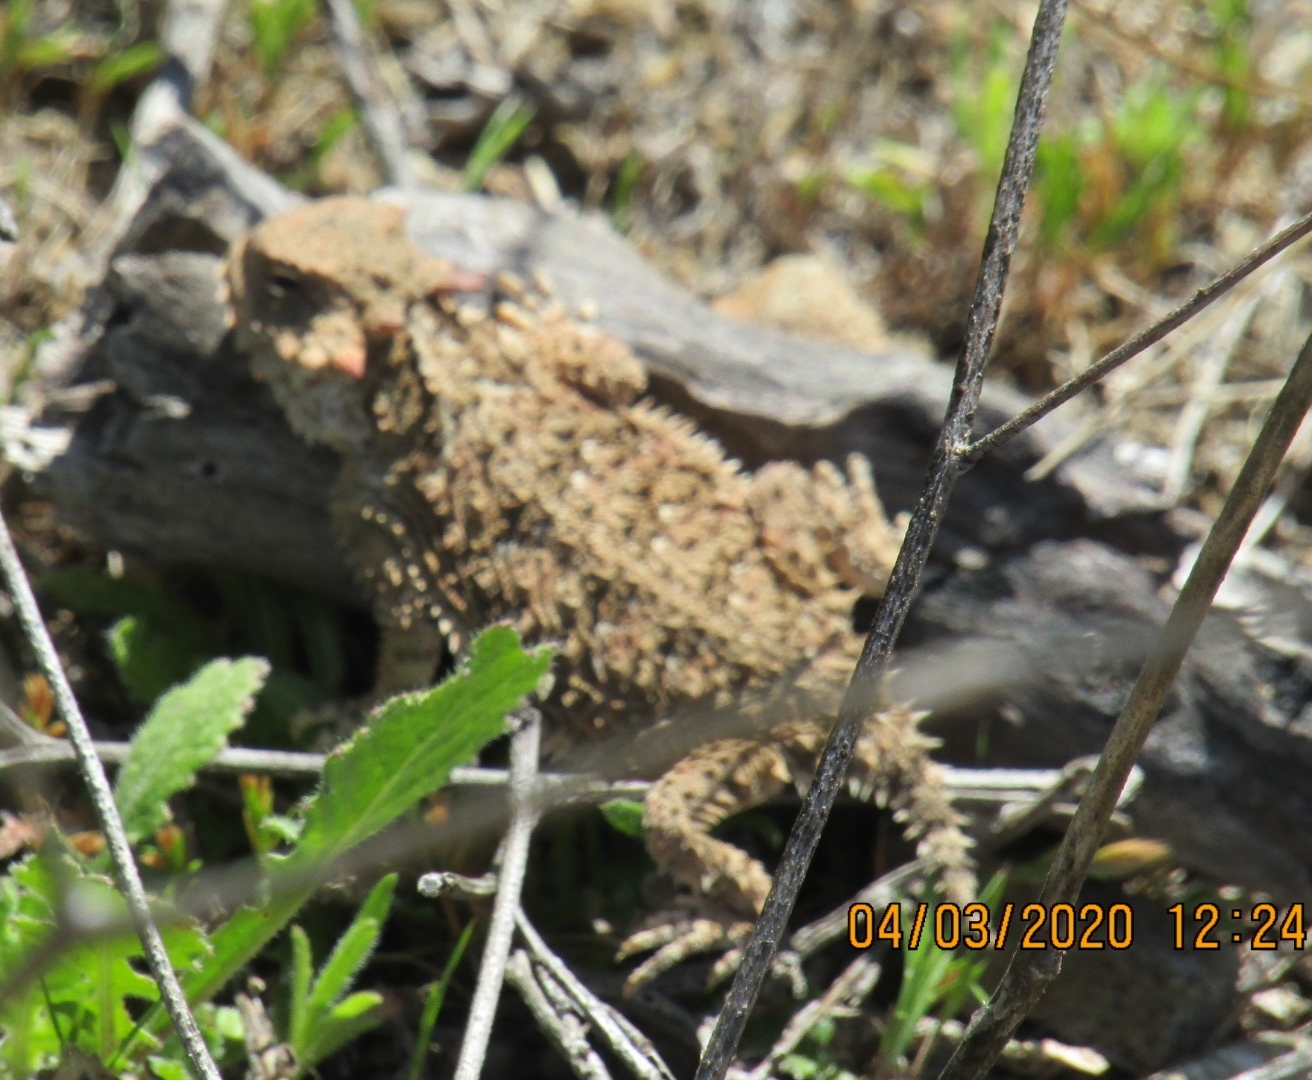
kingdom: Animalia
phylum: Chordata
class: Squamata
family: Phrynosomatidae
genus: Phrynosoma
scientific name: Phrynosoma blainvillii
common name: San diego horned lizard
